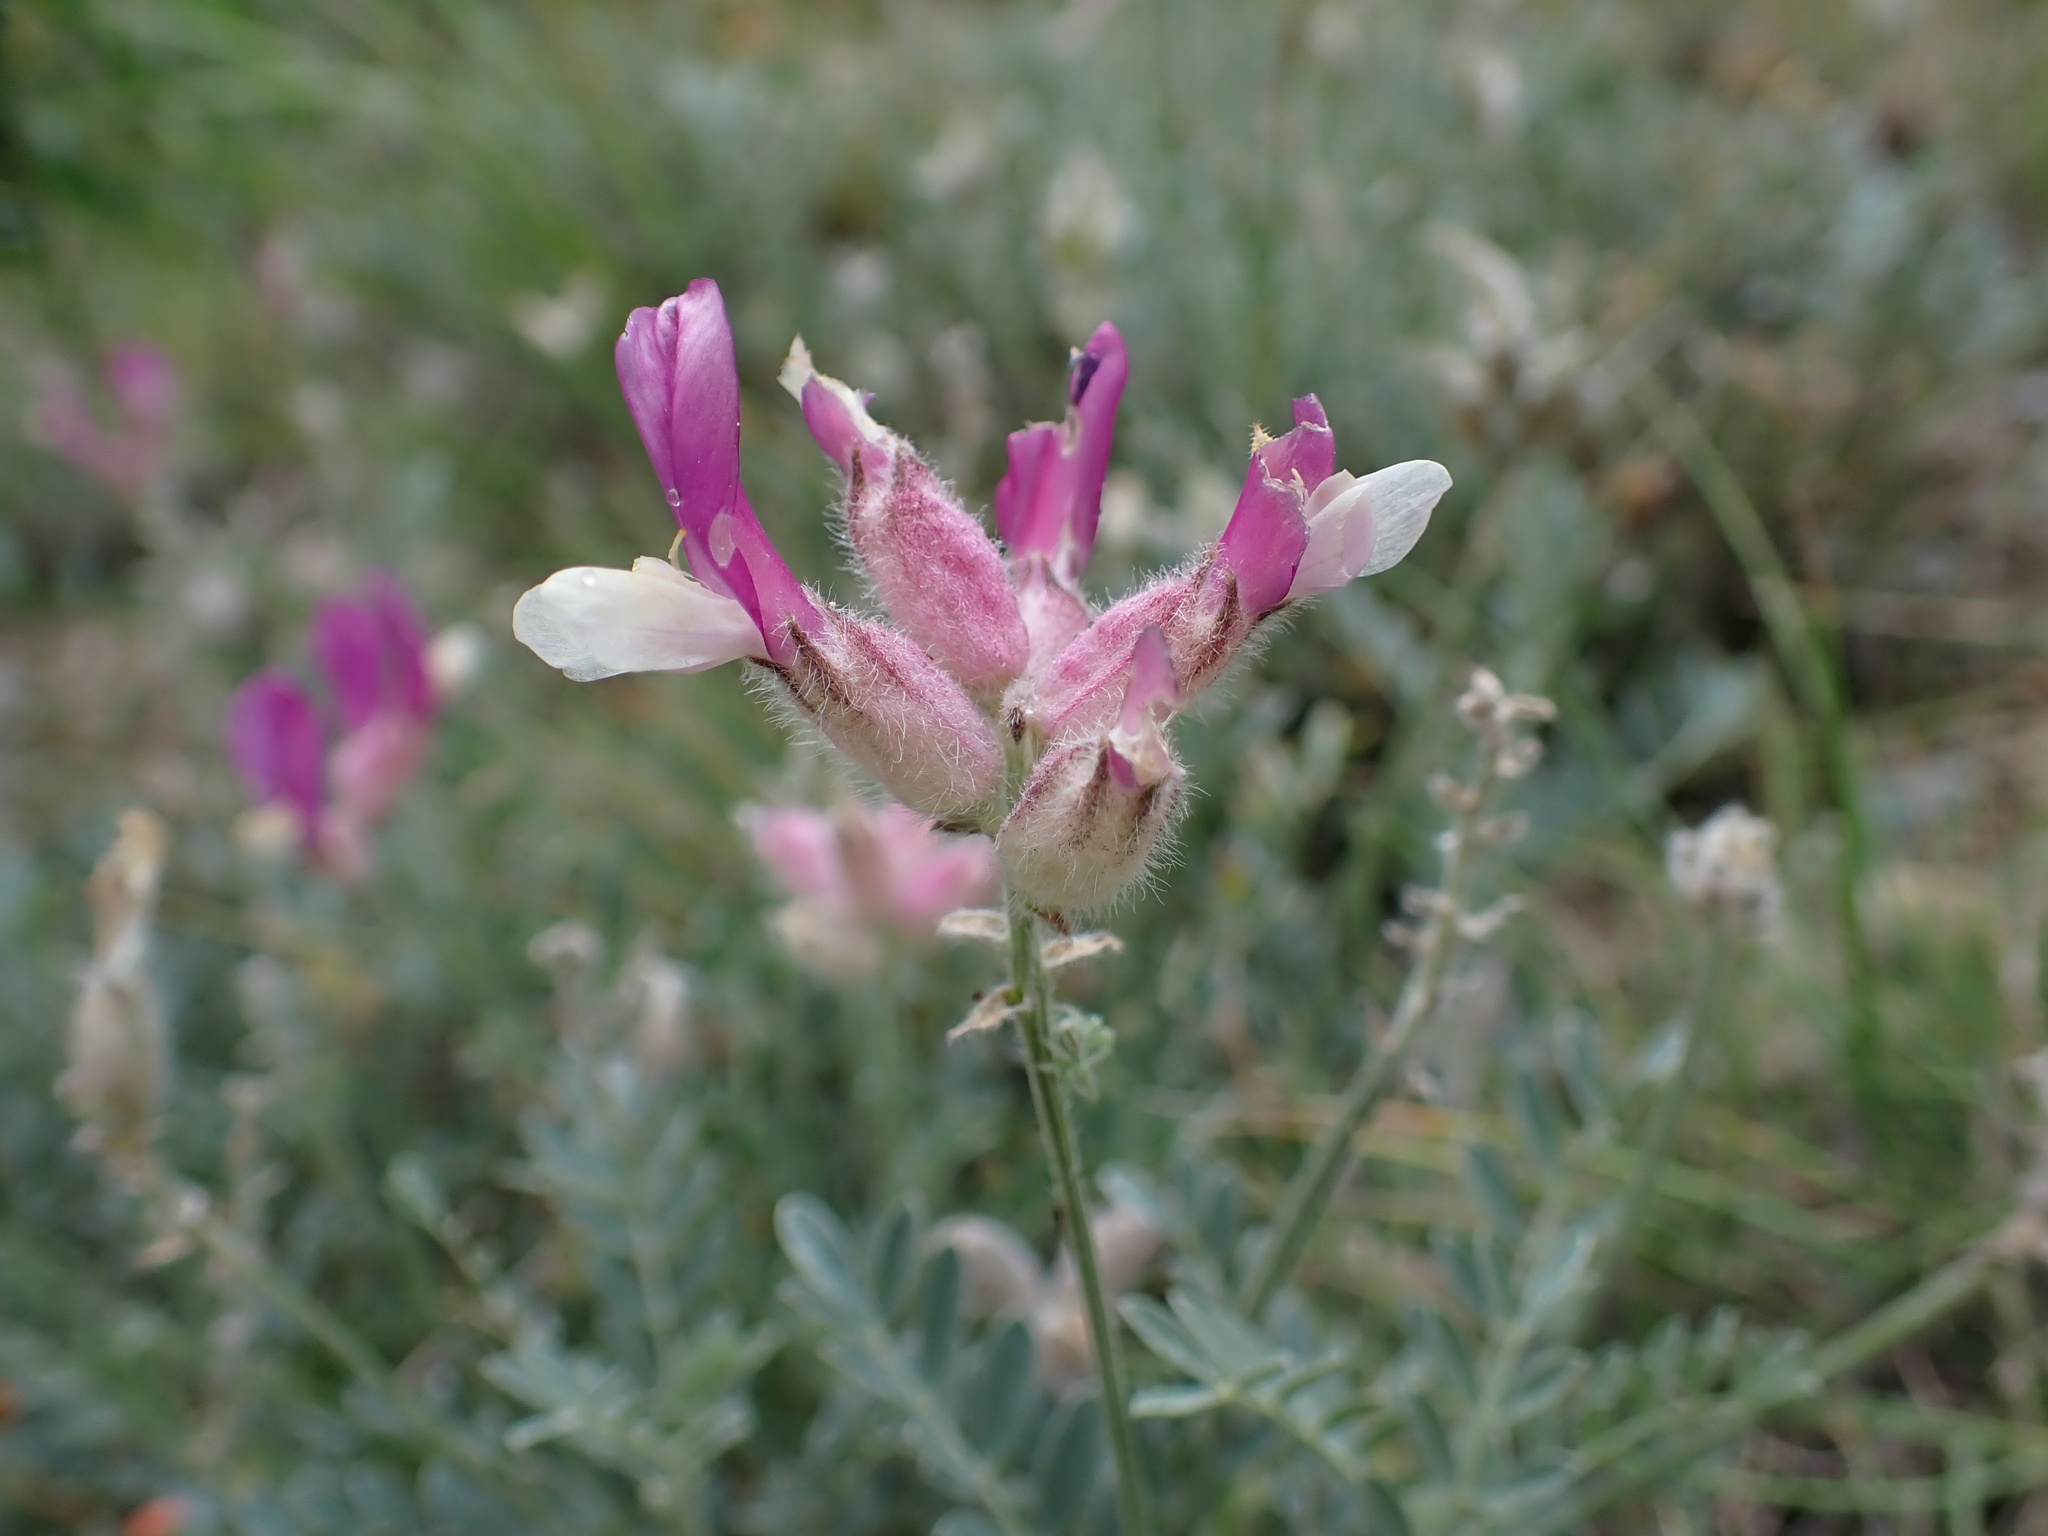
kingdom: Plantae
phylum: Tracheophyta
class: Magnoliopsida
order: Fabales
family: Fabaceae
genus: Astragalus
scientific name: Astragalus vesicarius
